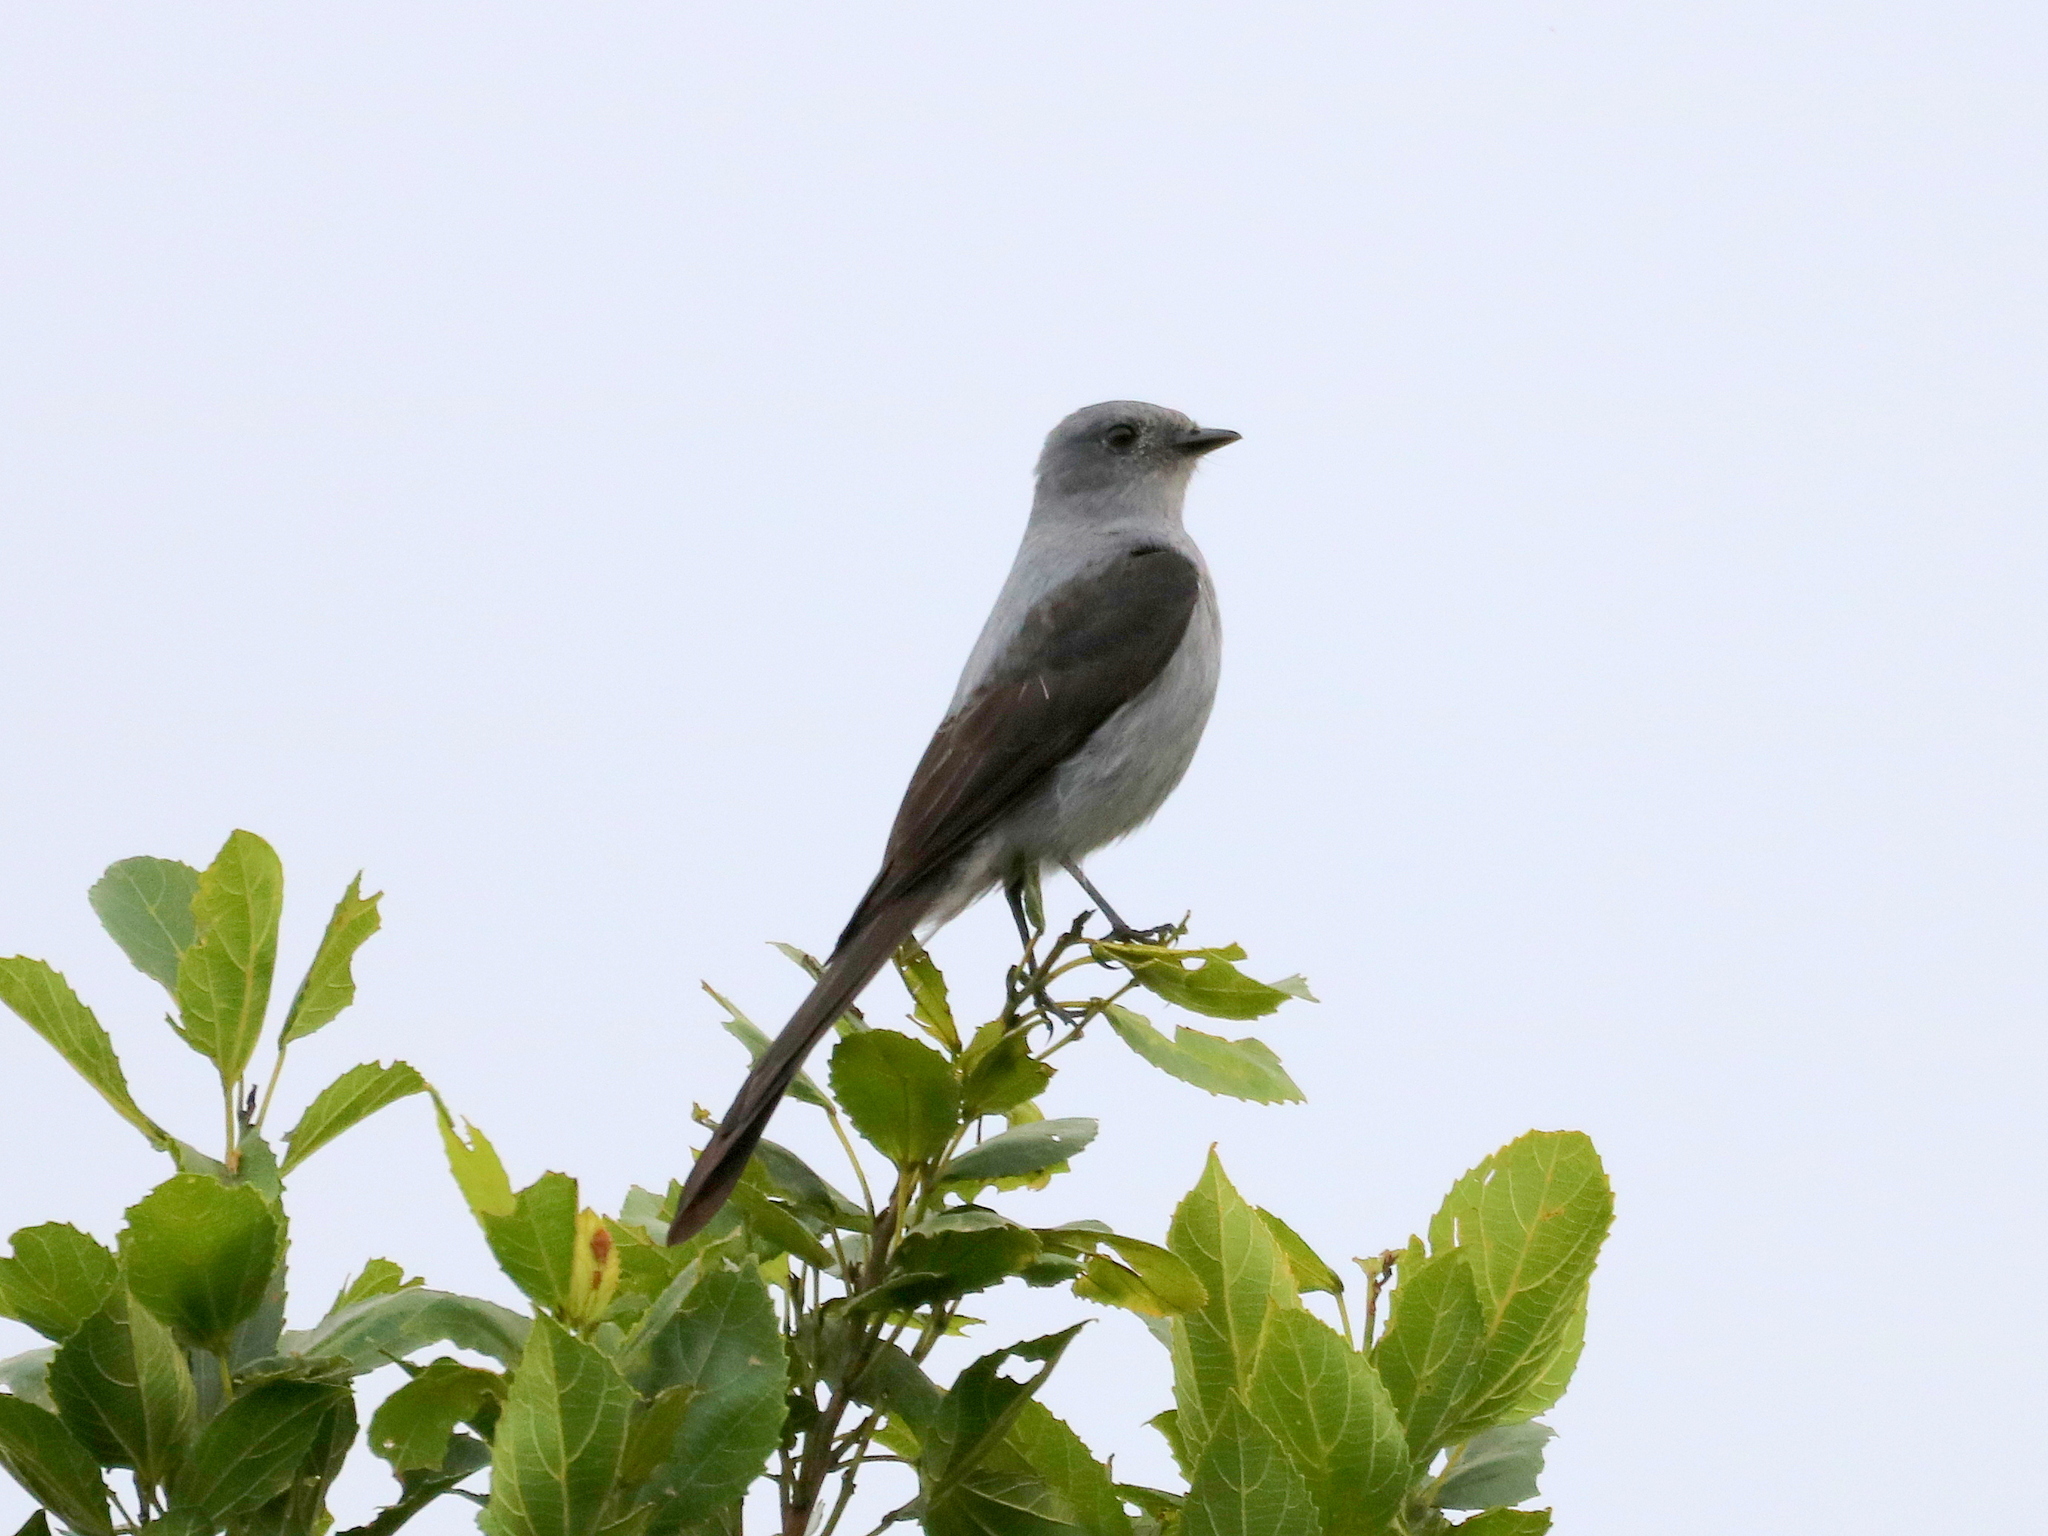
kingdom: Animalia
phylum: Chordata
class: Aves
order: Passeriformes
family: Tyrannidae
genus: Muscipipra
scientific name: Muscipipra vetula
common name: Shear-tailed grey tyrant
